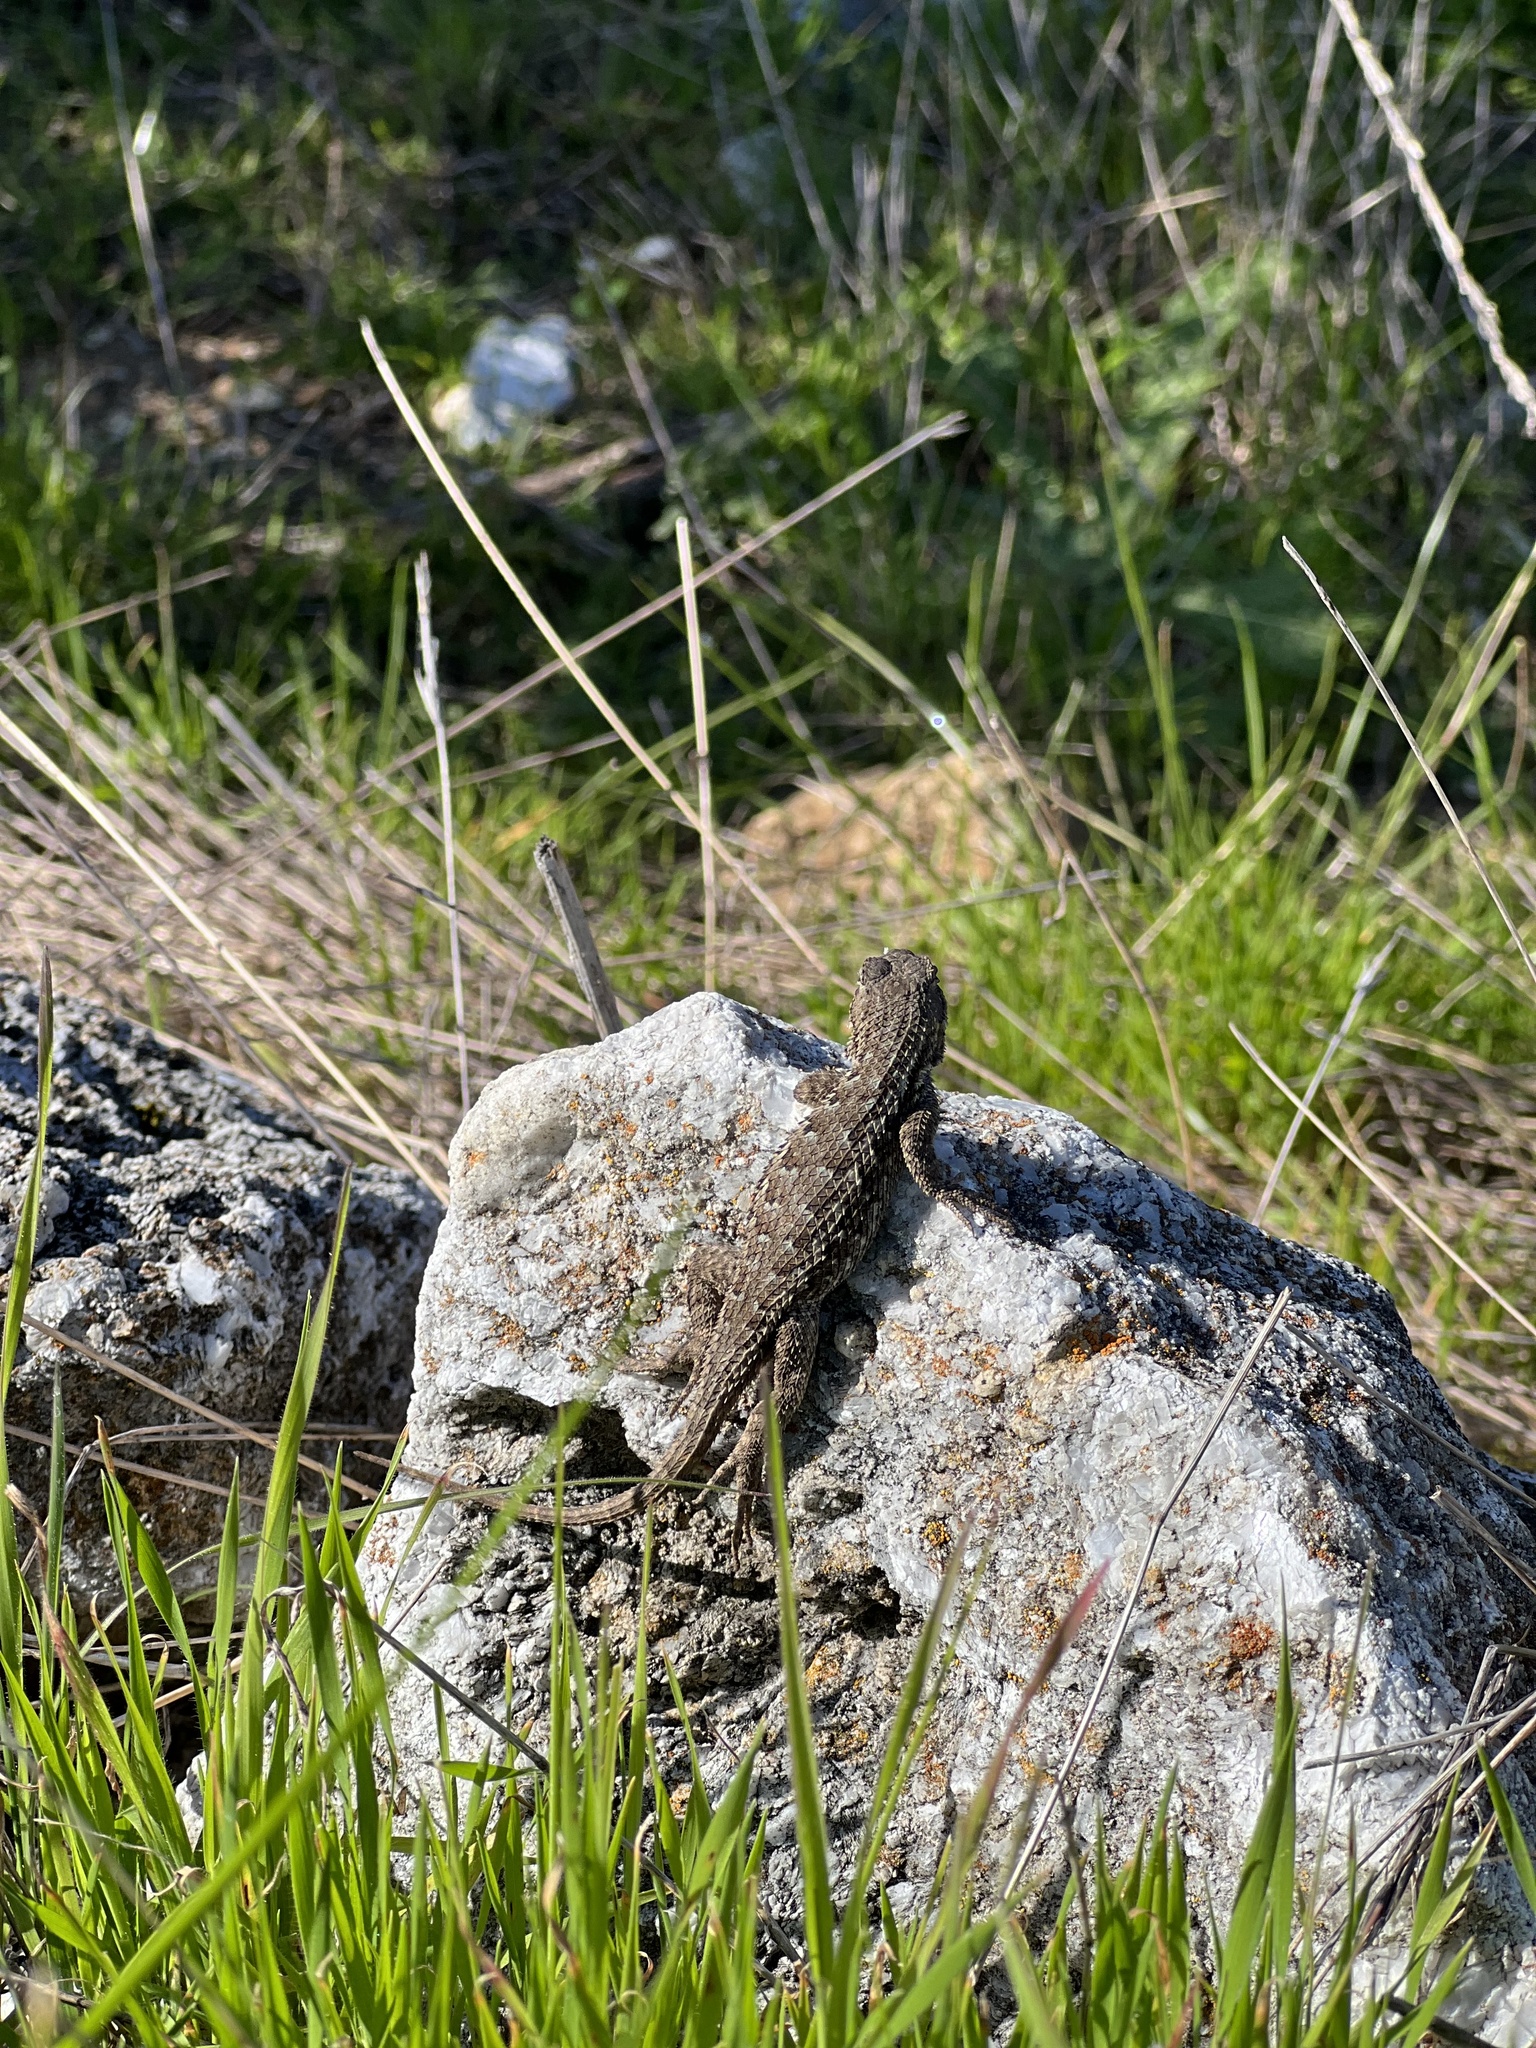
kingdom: Animalia
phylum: Chordata
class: Squamata
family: Phrynosomatidae
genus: Sceloporus
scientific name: Sceloporus occidentalis
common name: Western fence lizard
